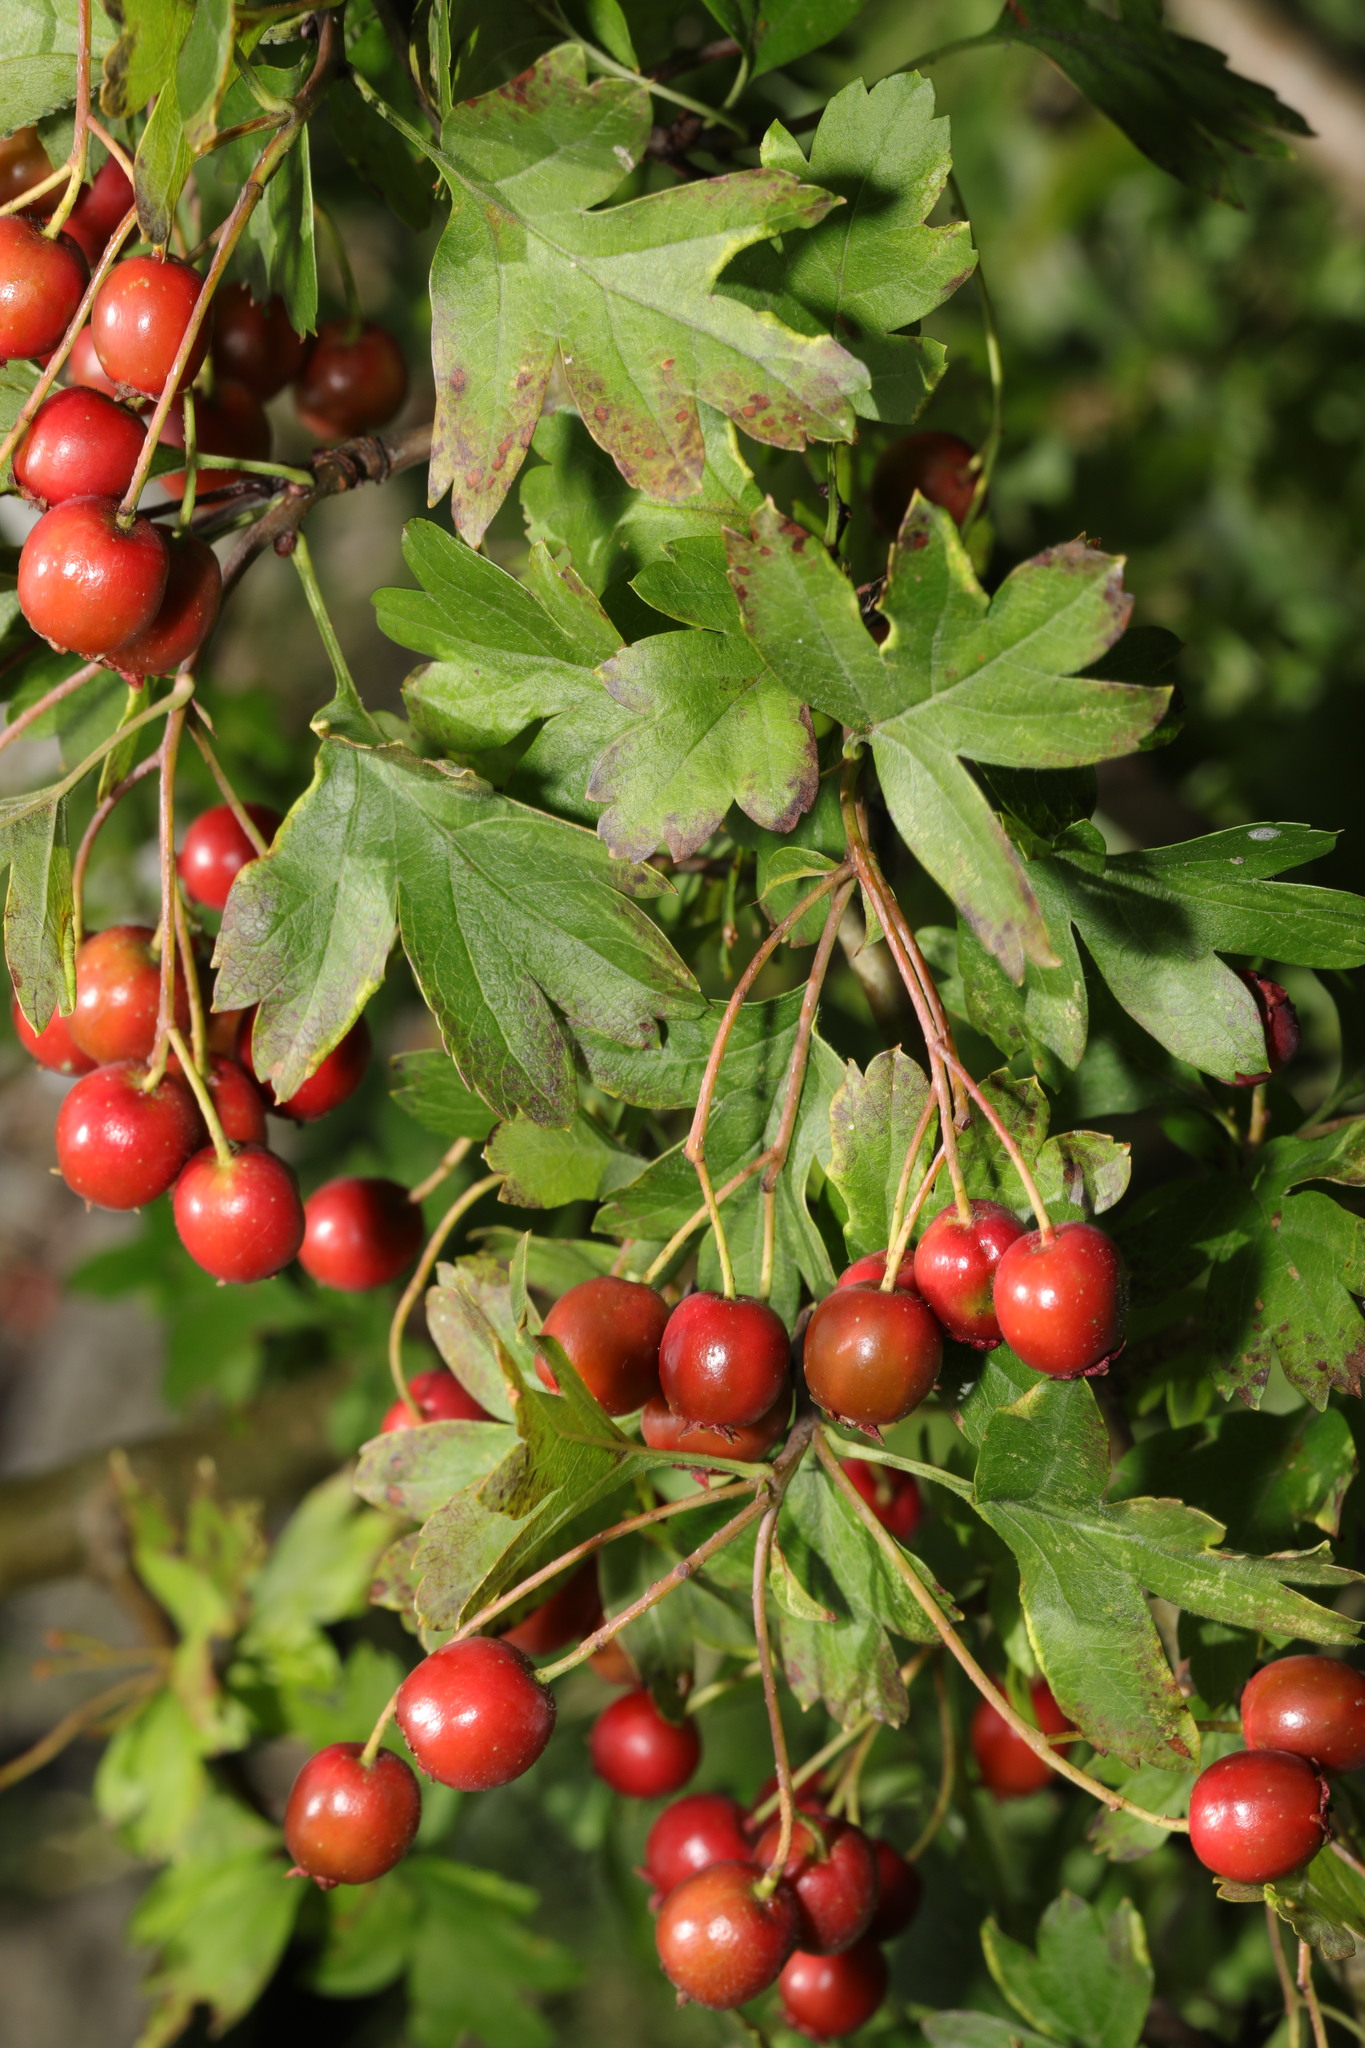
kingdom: Plantae
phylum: Tracheophyta
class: Magnoliopsida
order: Rosales
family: Rosaceae
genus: Crataegus
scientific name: Crataegus monogyna
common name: Hawthorn
